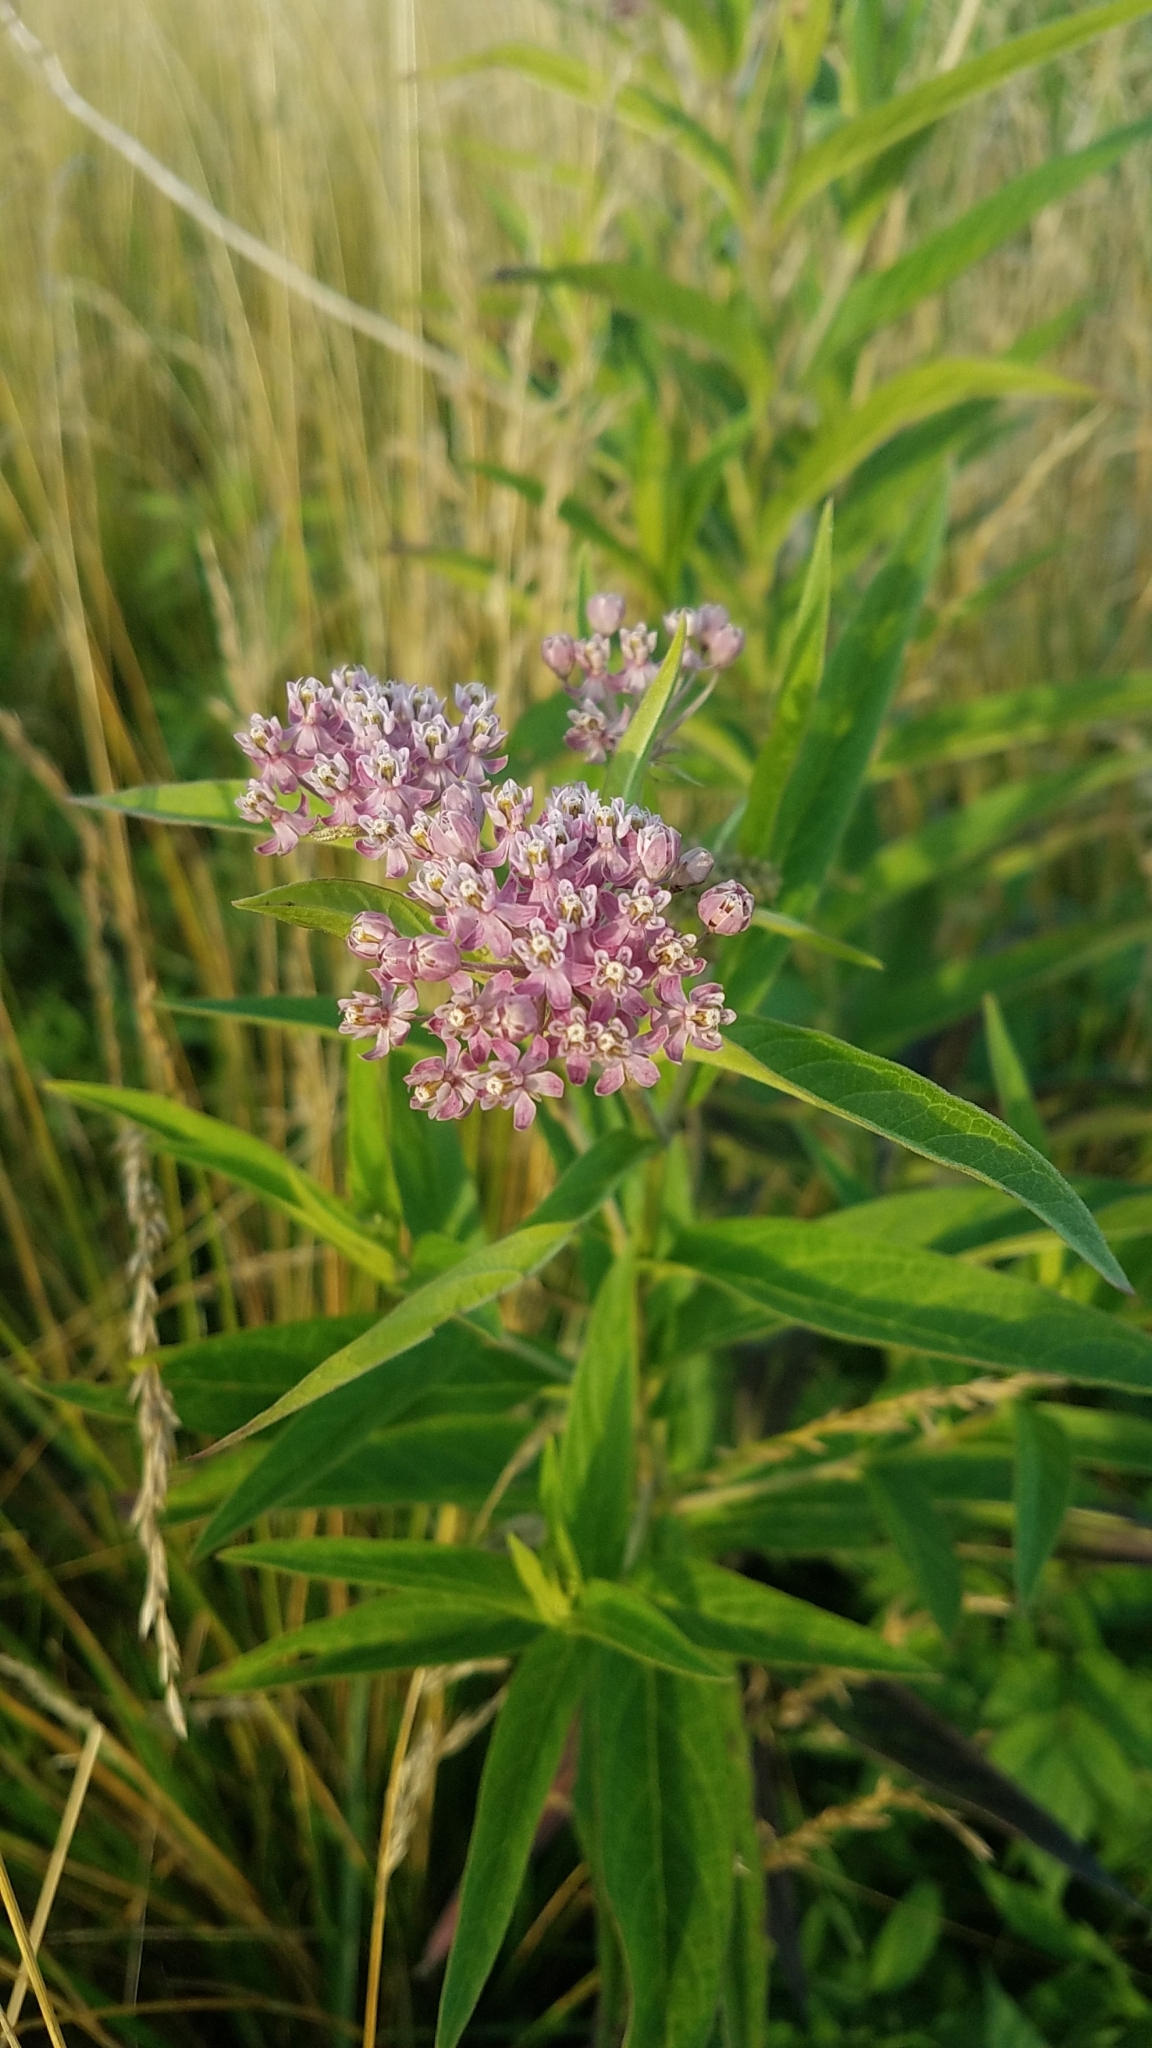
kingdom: Plantae
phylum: Tracheophyta
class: Magnoliopsida
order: Gentianales
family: Apocynaceae
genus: Asclepias
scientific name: Asclepias incarnata
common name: Swamp milkweed
